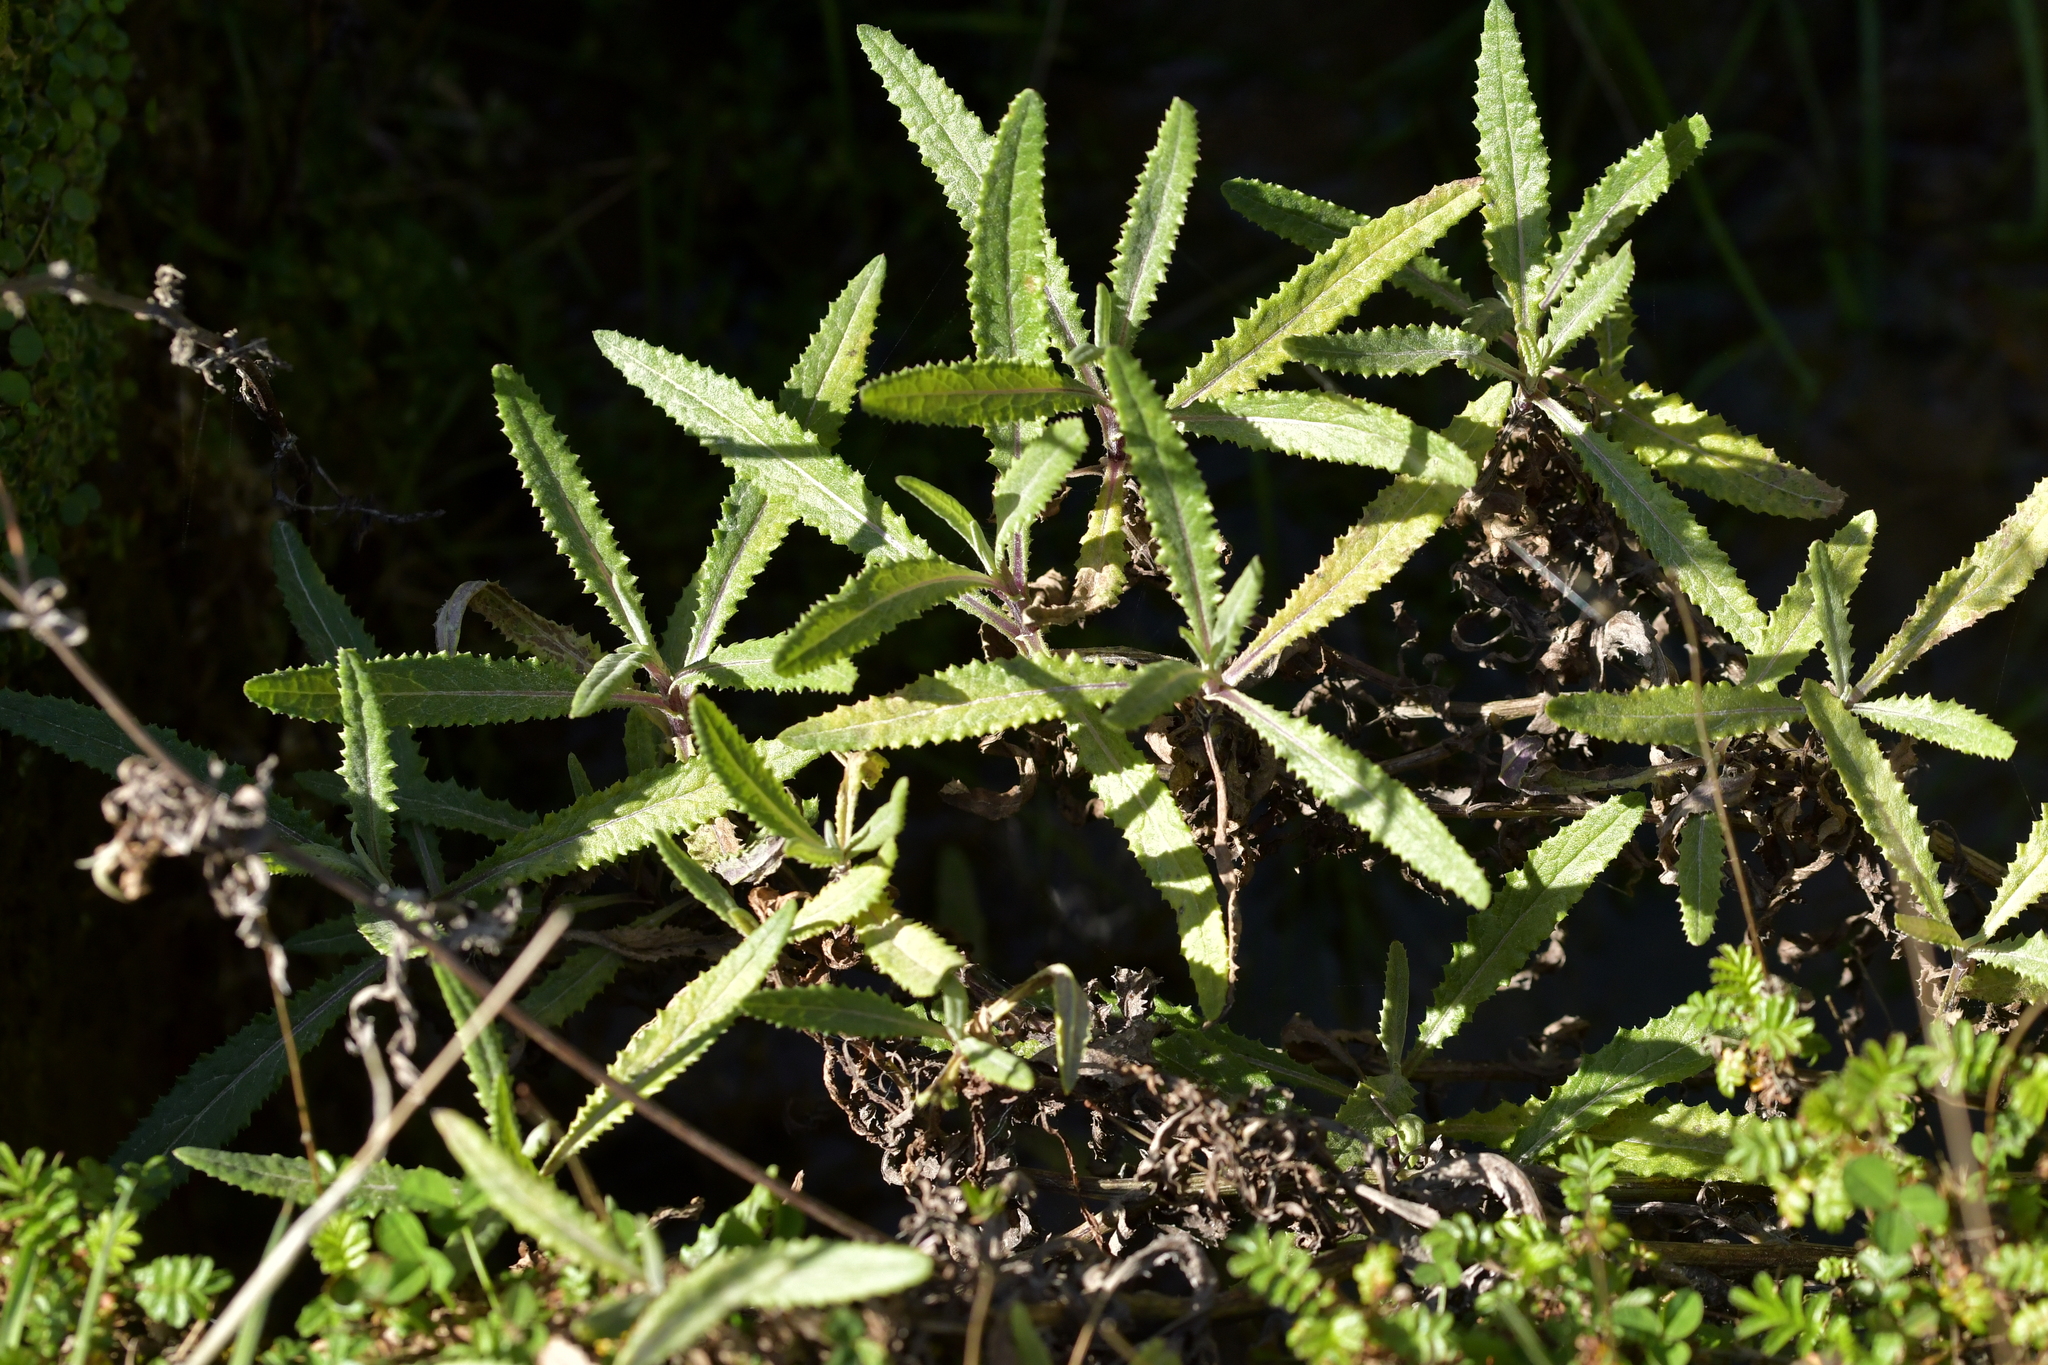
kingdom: Plantae
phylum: Tracheophyta
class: Magnoliopsida
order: Asterales
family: Asteraceae
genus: Senecio
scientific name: Senecio minimus
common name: Toothed fireweed
